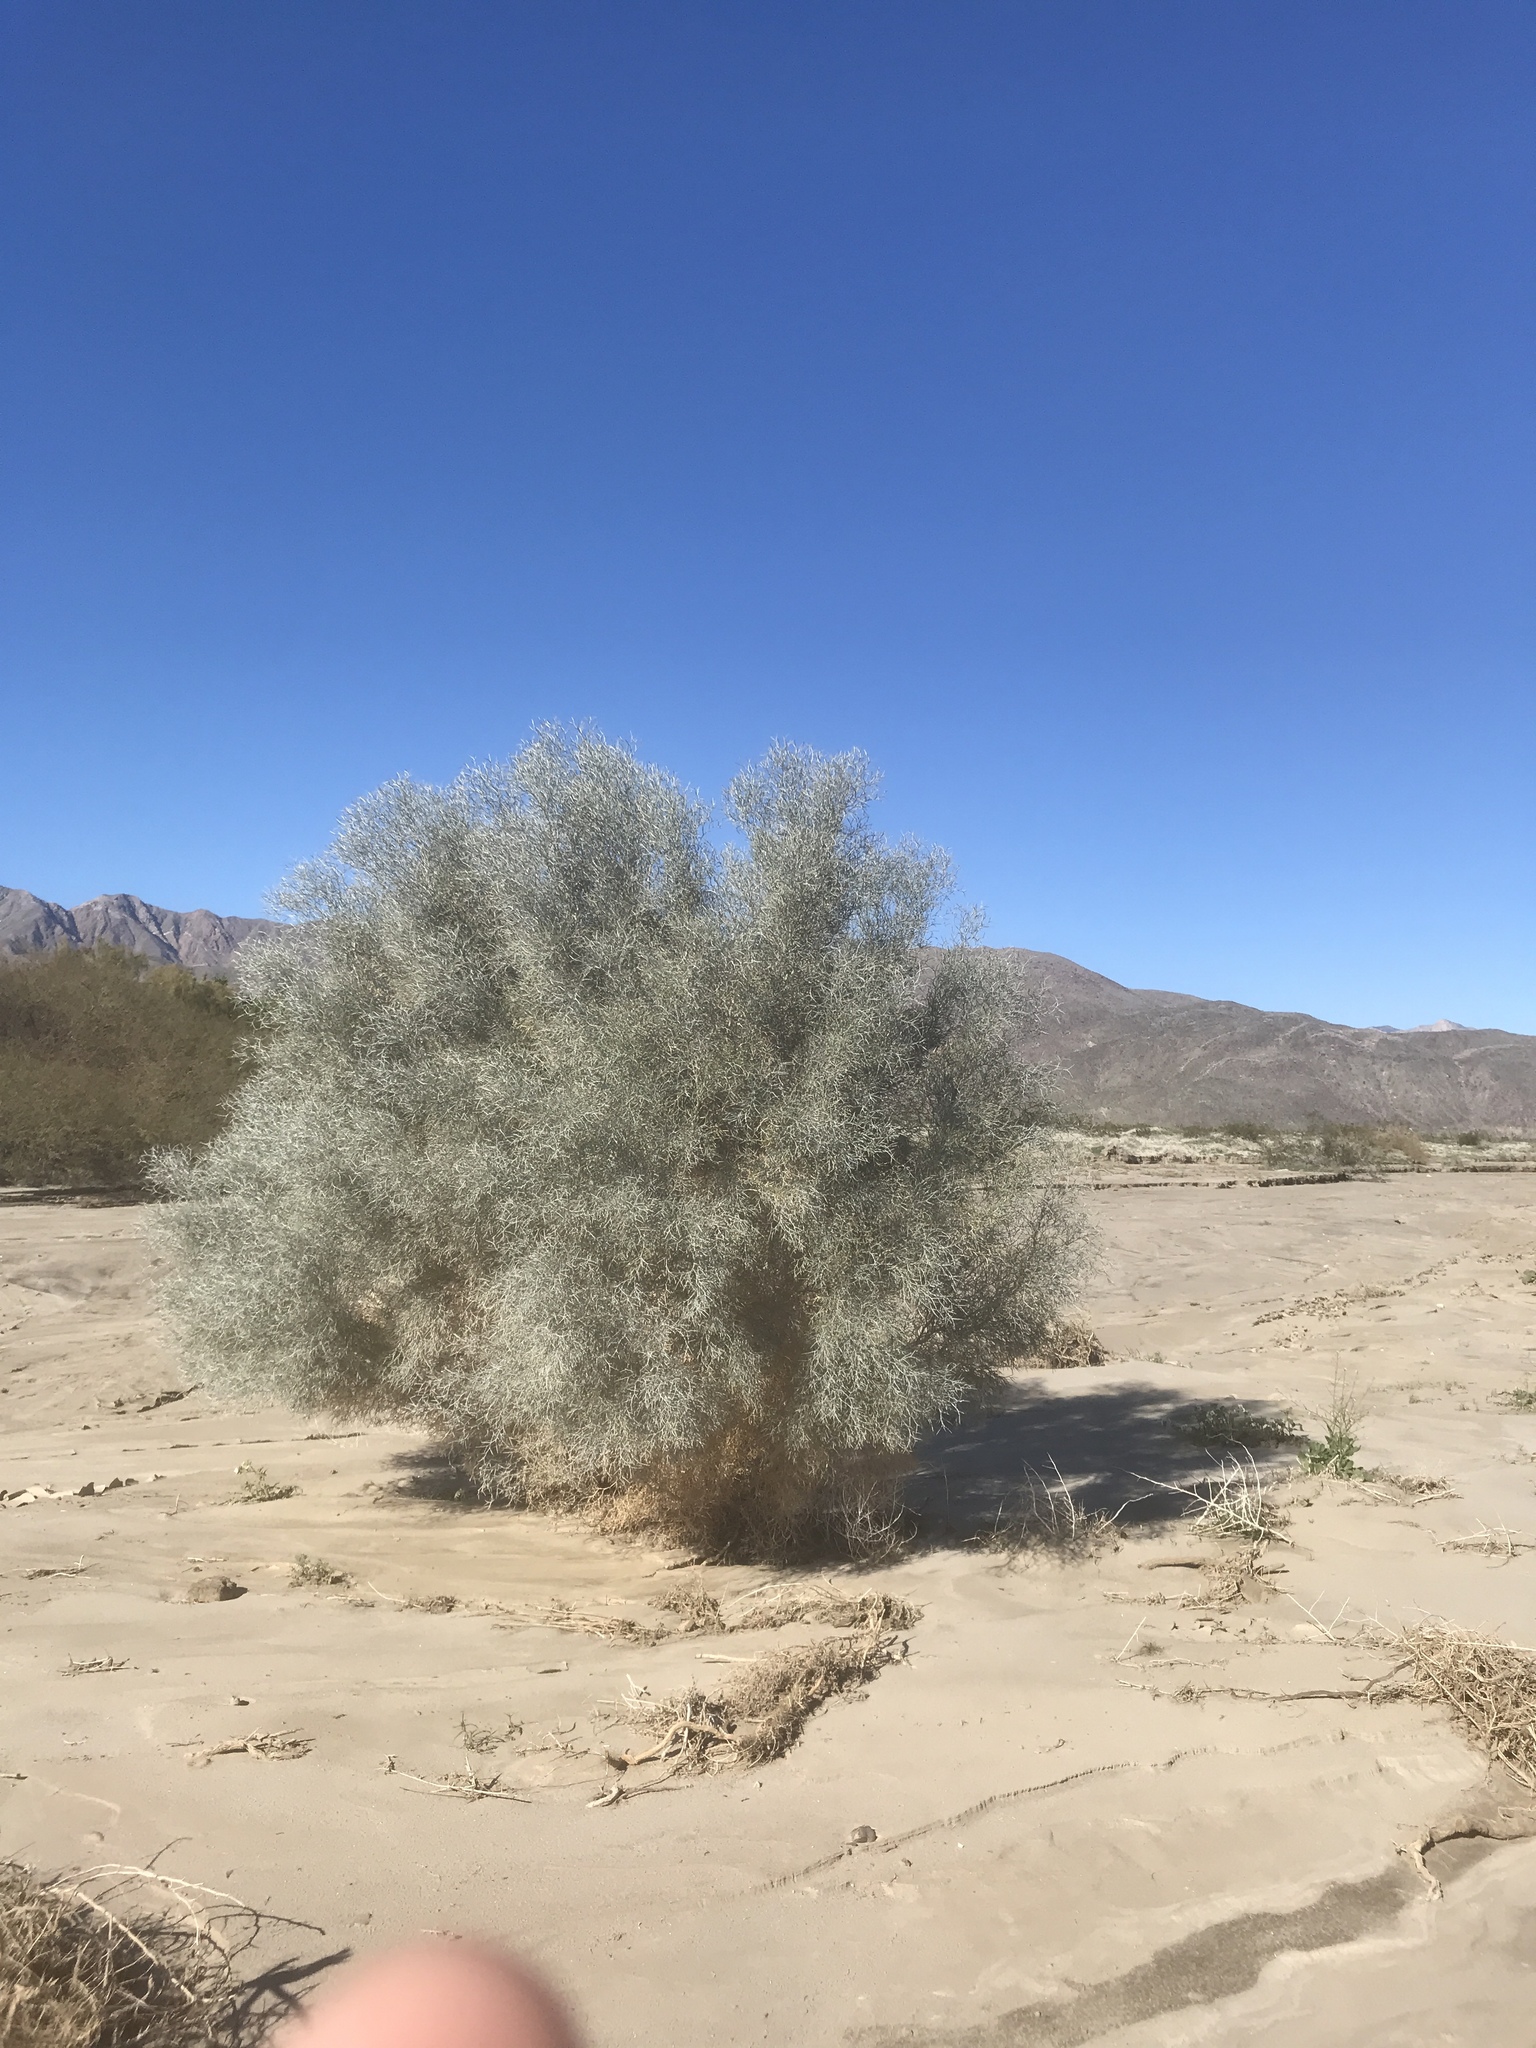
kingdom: Plantae
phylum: Tracheophyta
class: Magnoliopsida
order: Fabales
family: Fabaceae
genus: Psorothamnus
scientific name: Psorothamnus spinosus
